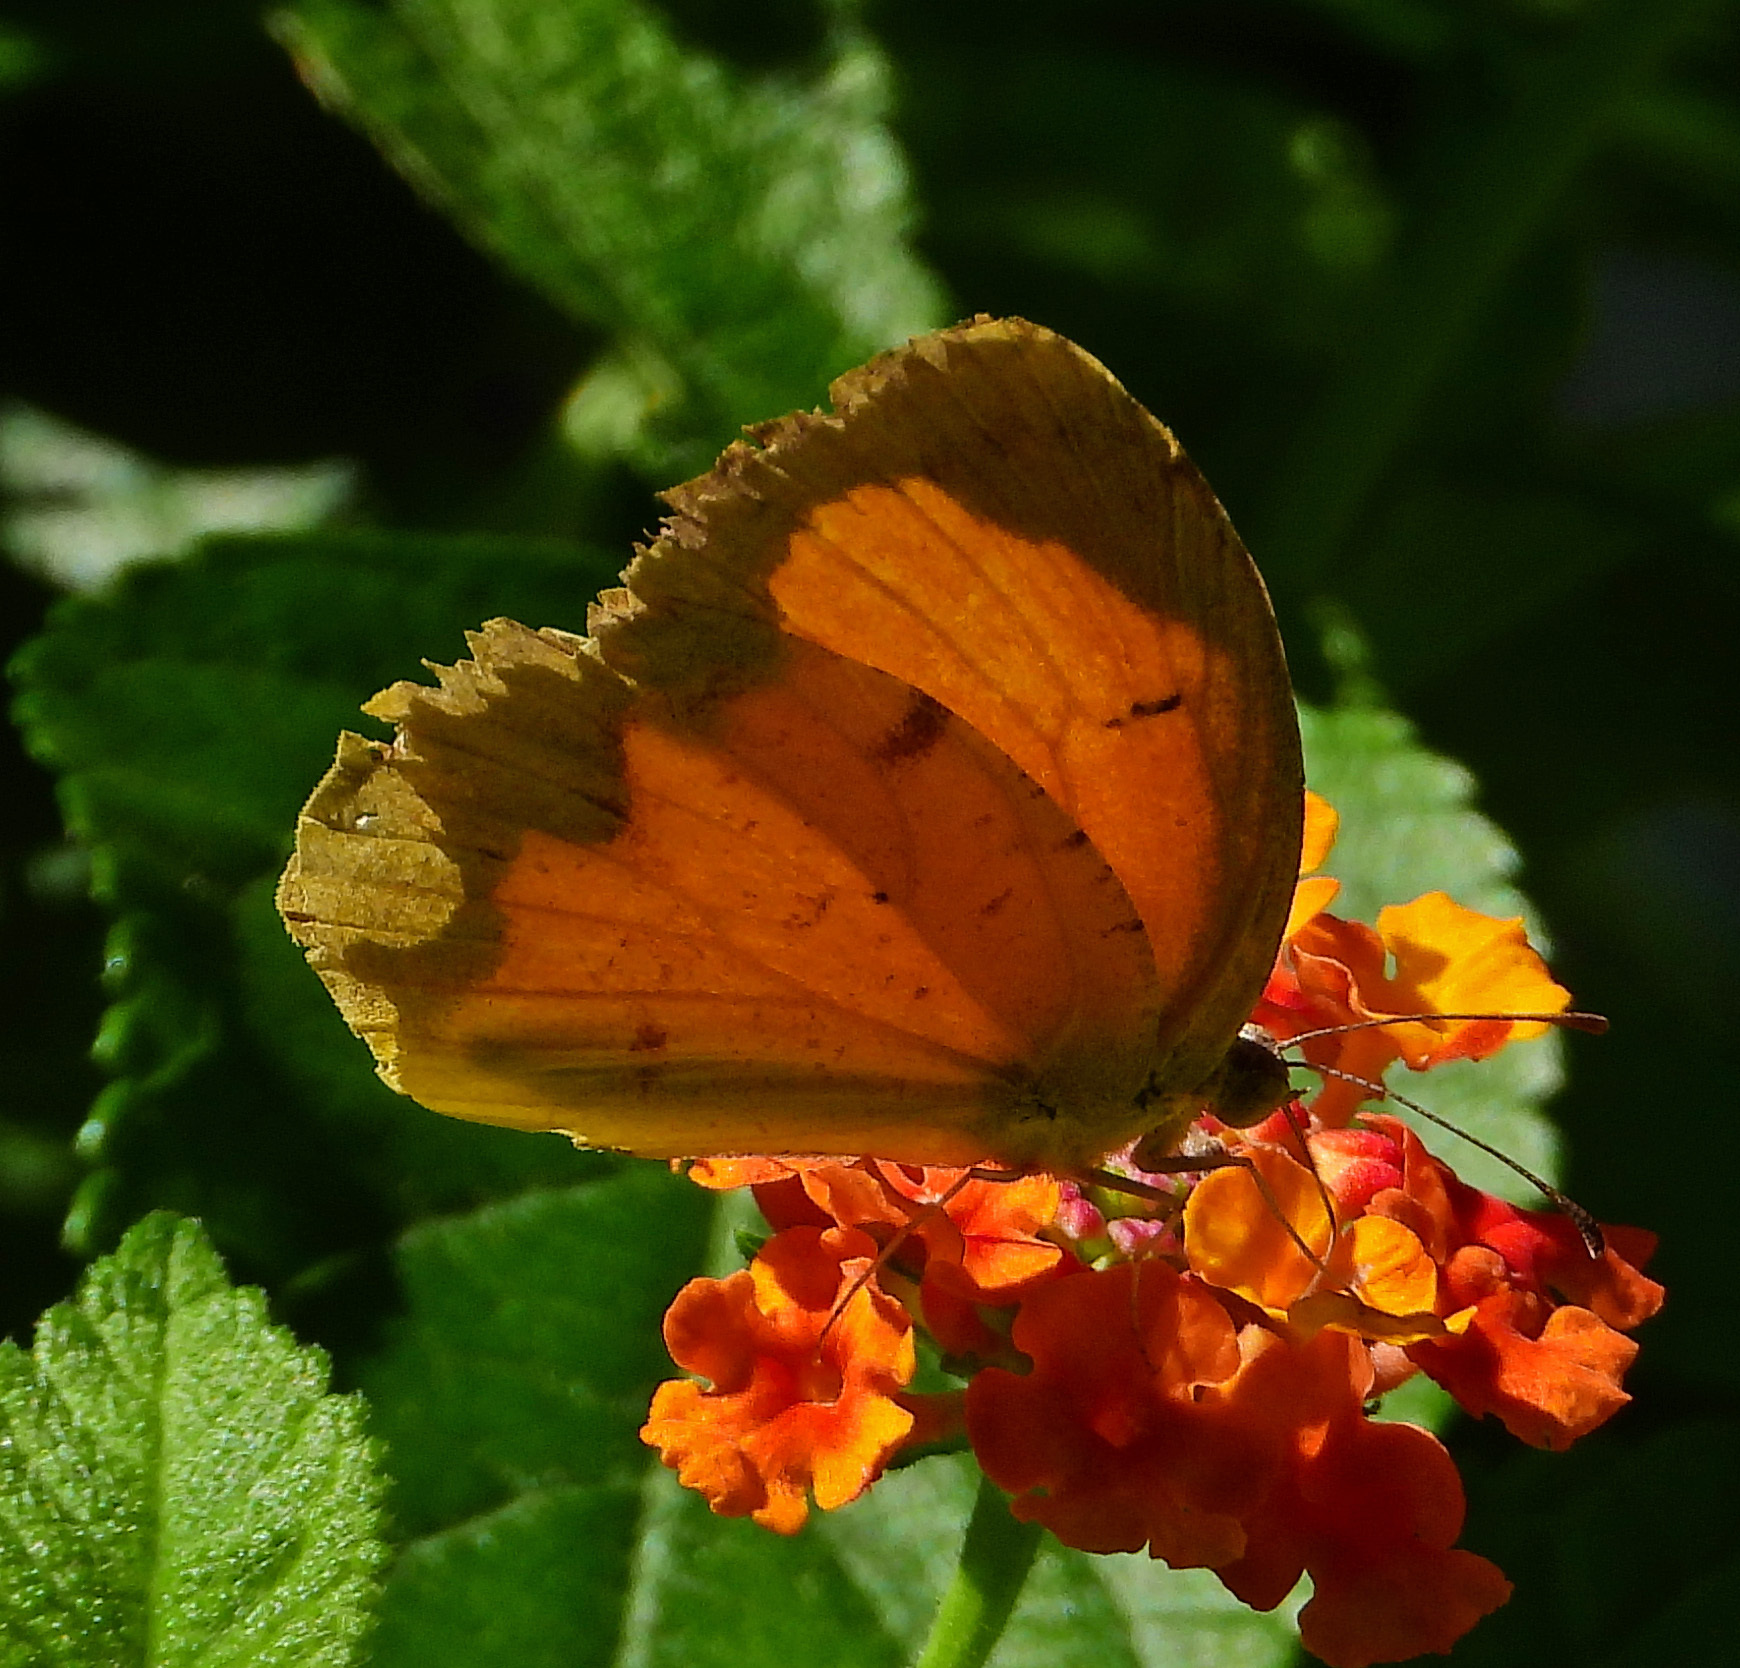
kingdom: Animalia
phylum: Arthropoda
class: Insecta
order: Lepidoptera
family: Pieridae
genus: Abaeis
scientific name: Abaeis nicippe
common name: Sleepy orange
